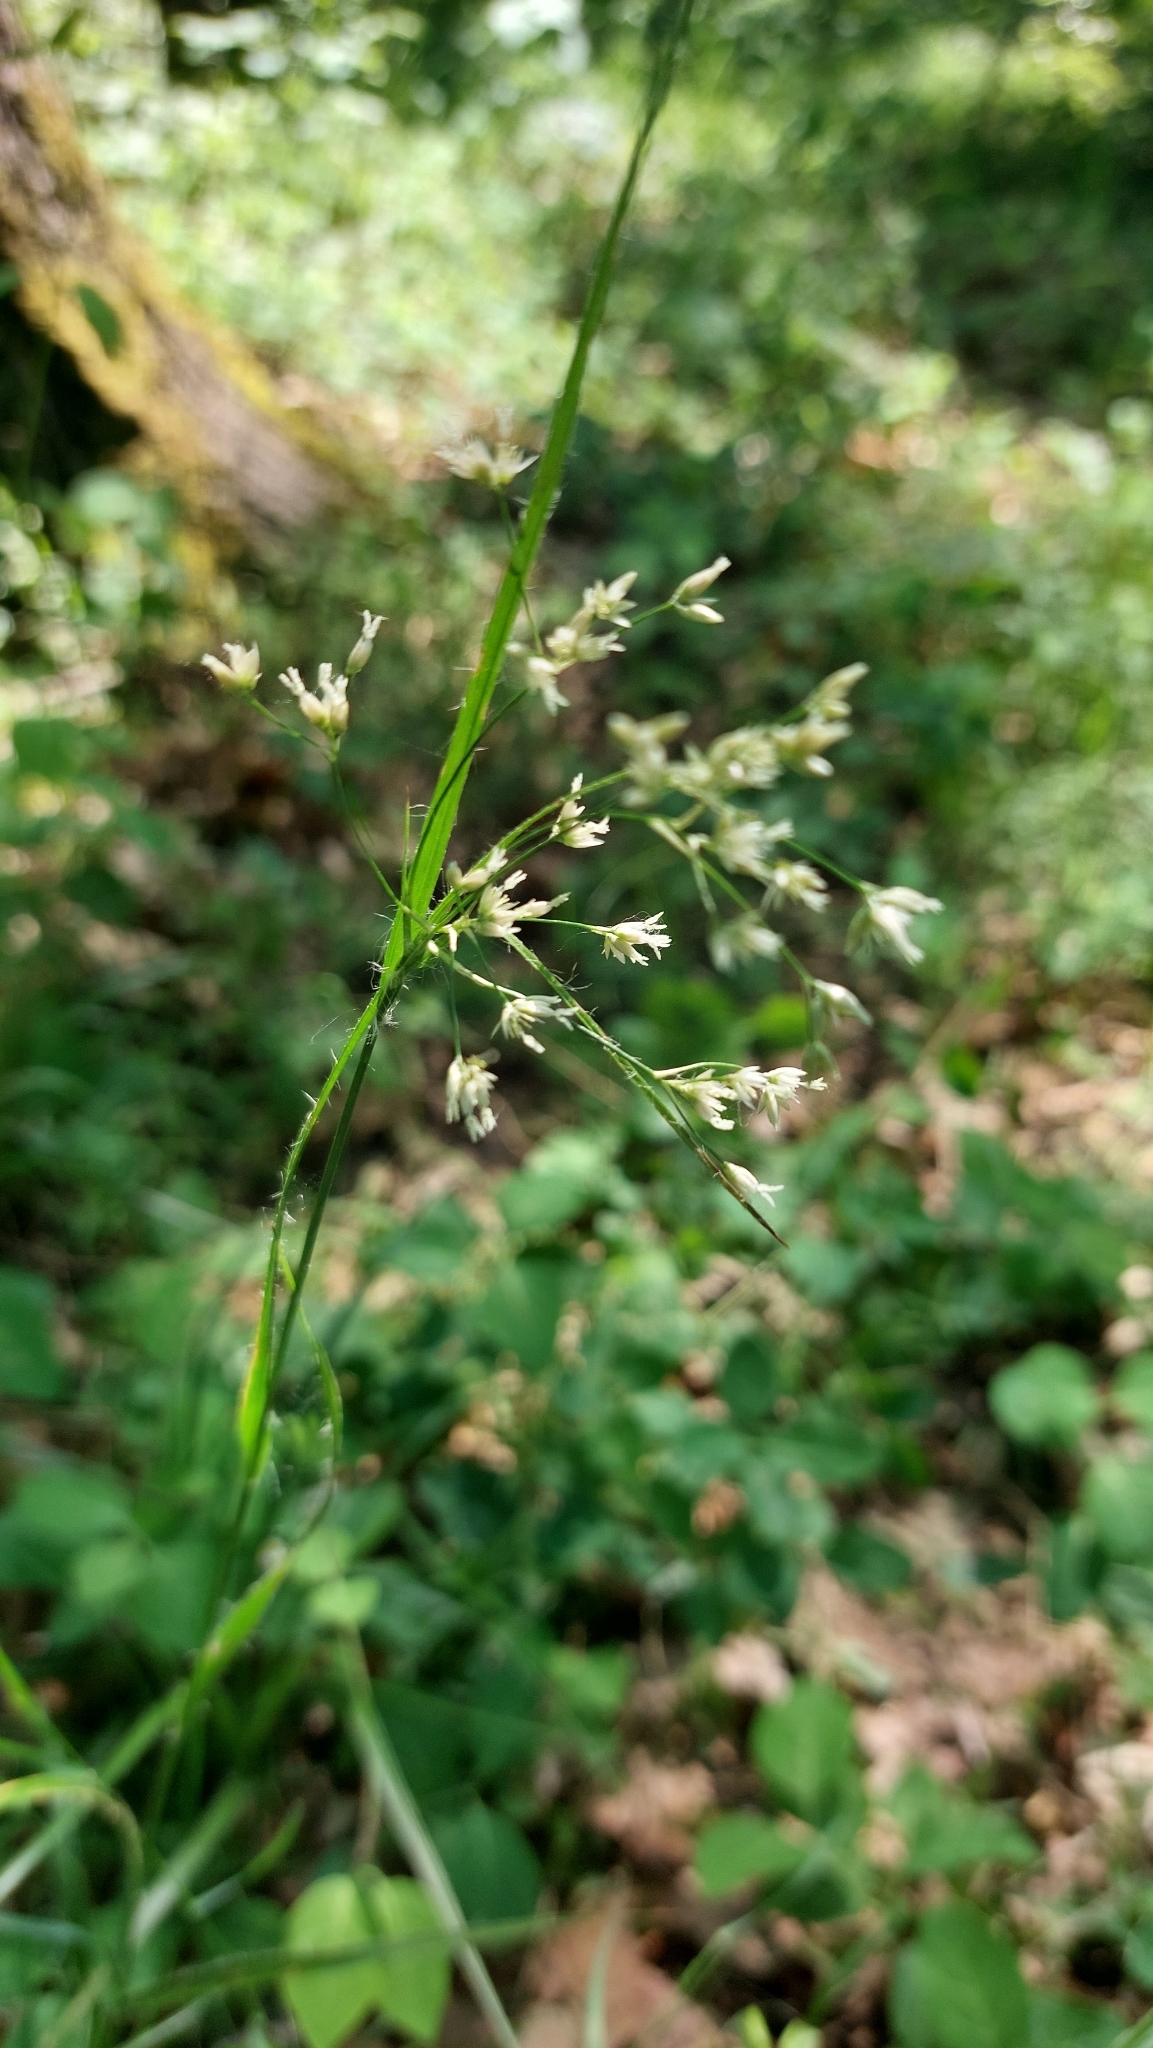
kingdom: Plantae
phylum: Tracheophyta
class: Liliopsida
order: Poales
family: Juncaceae
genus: Luzula
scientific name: Luzula luzuloides
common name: White wood-rush
